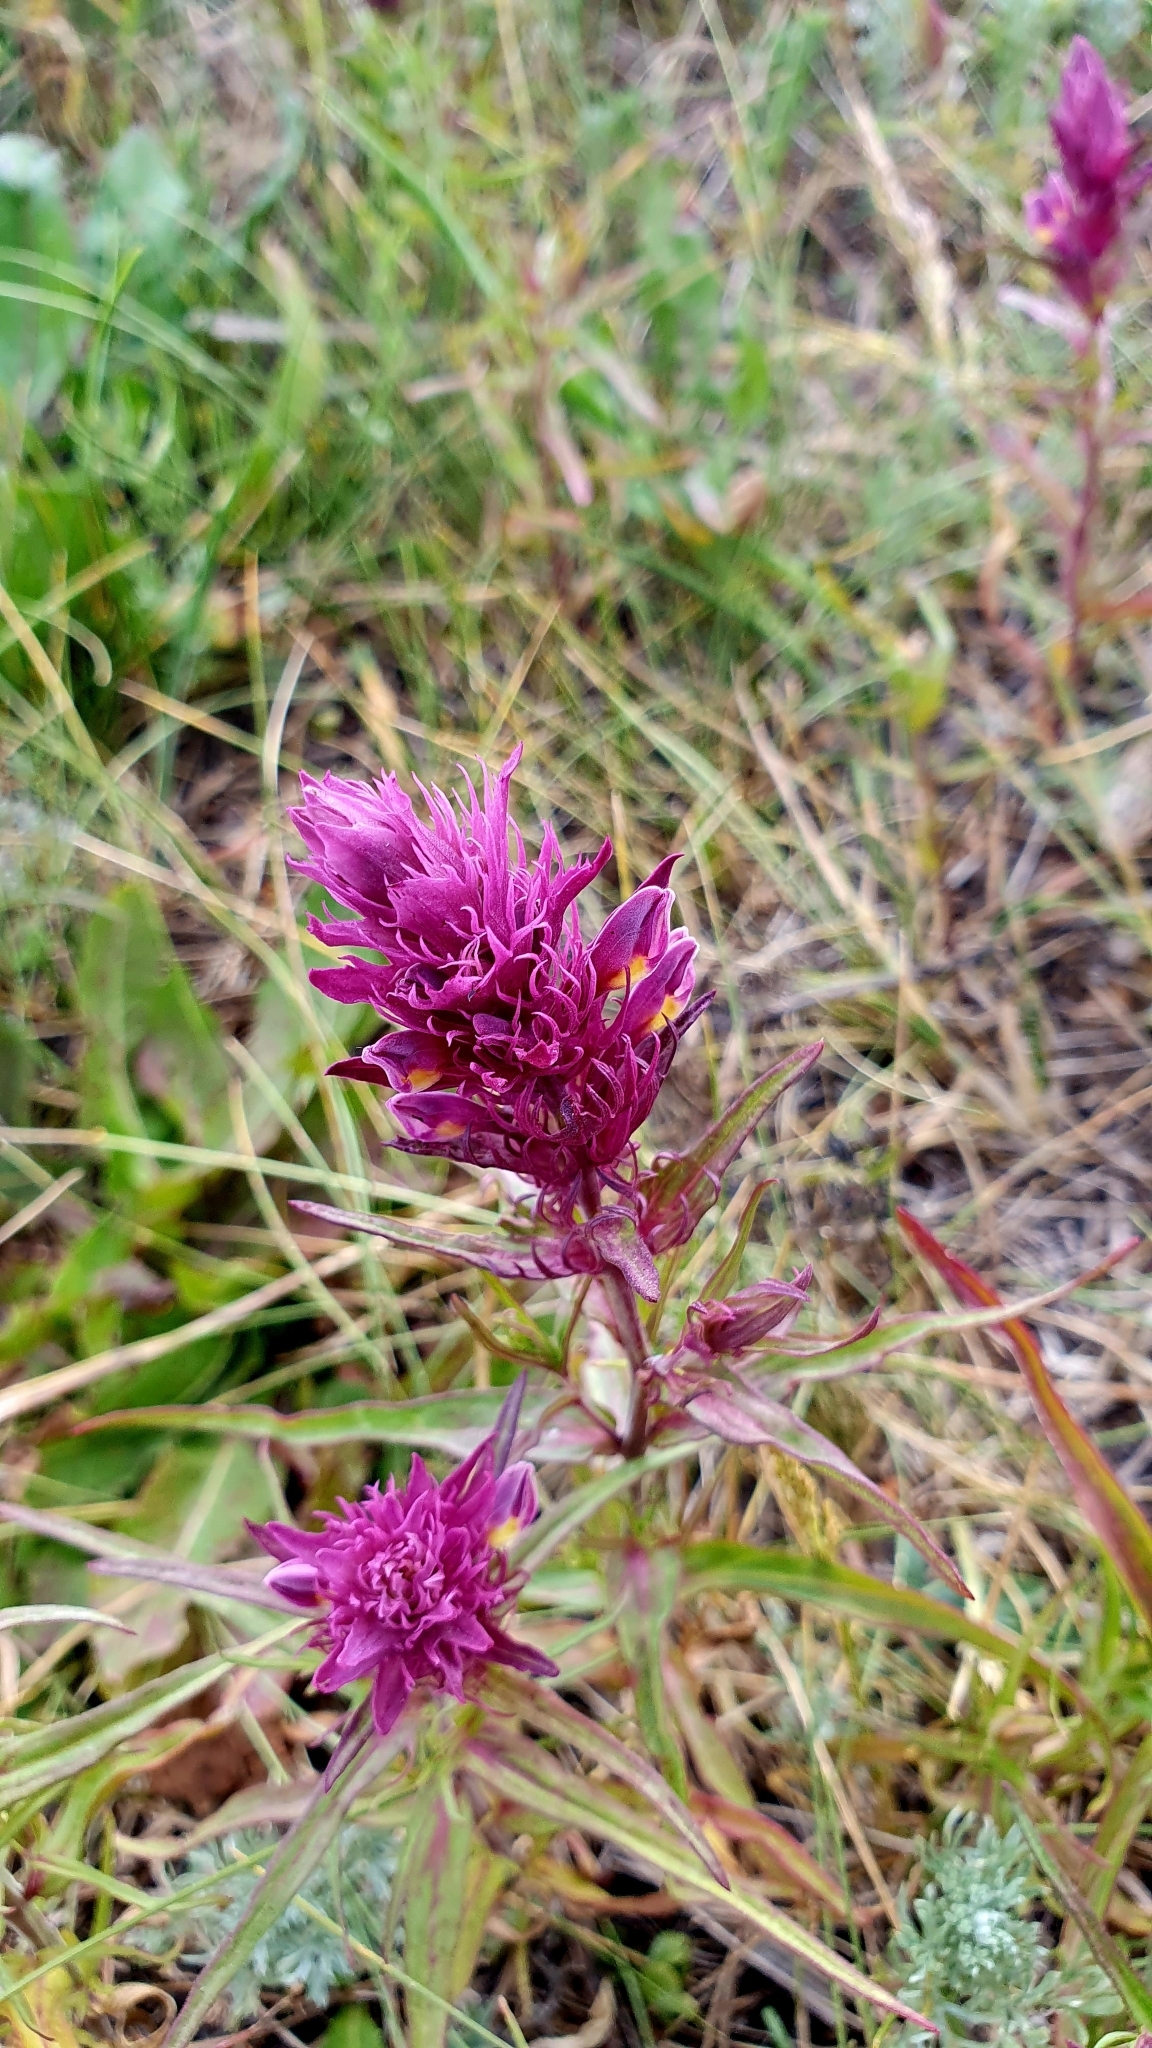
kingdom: Plantae
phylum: Tracheophyta
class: Magnoliopsida
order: Lamiales
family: Orobanchaceae
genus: Melampyrum
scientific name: Melampyrum arvense
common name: Field cow-wheat
